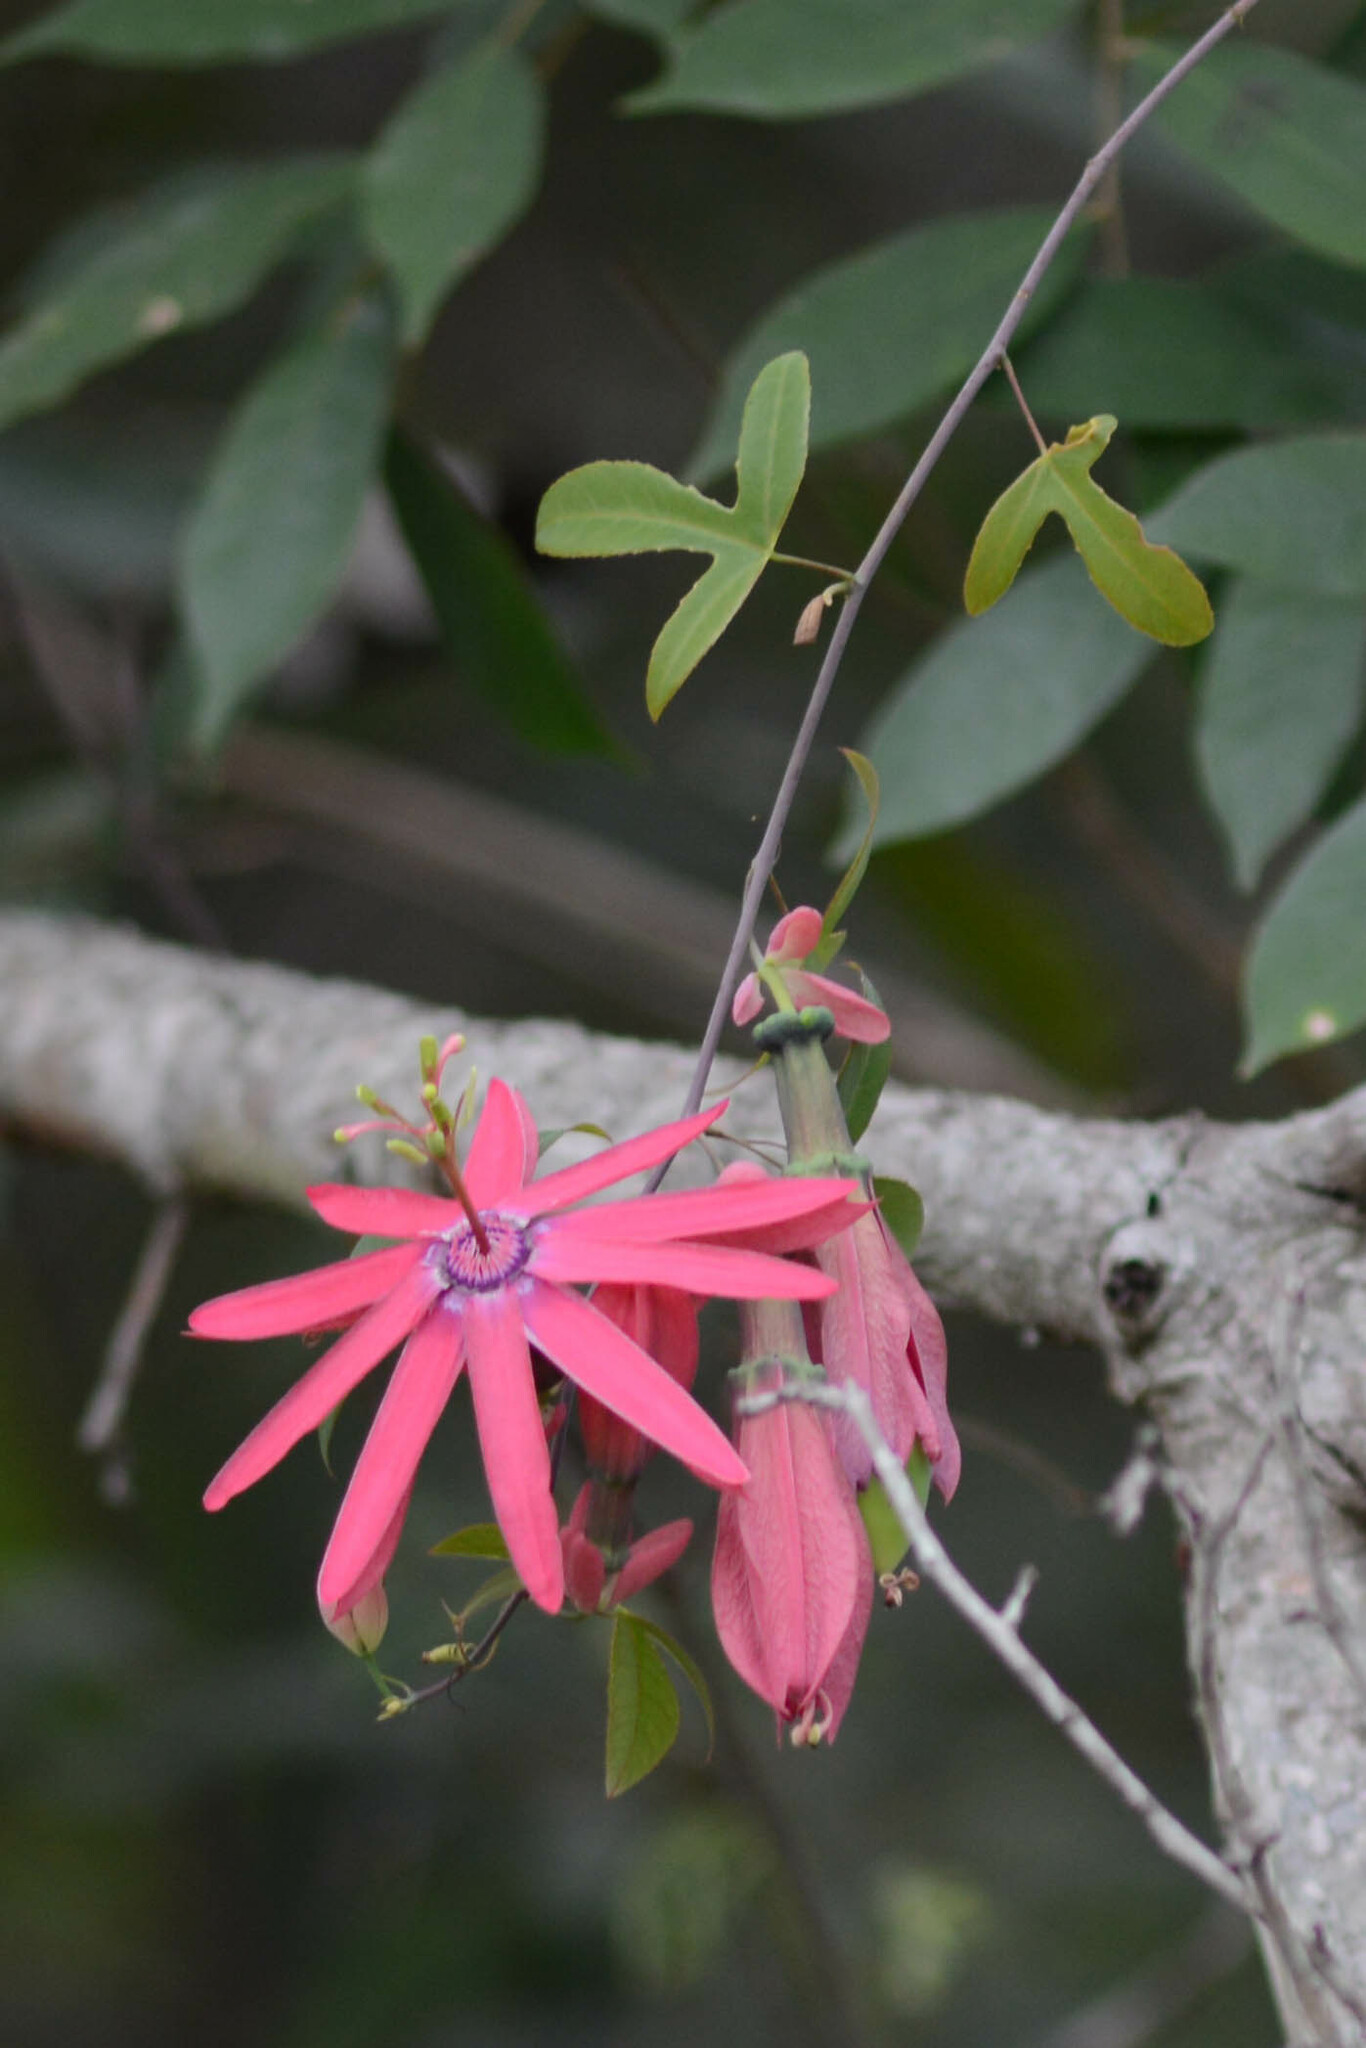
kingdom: Plantae
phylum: Tracheophyta
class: Magnoliopsida
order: Malpighiales
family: Passifloraceae
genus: Passiflora
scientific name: Passiflora trintae
